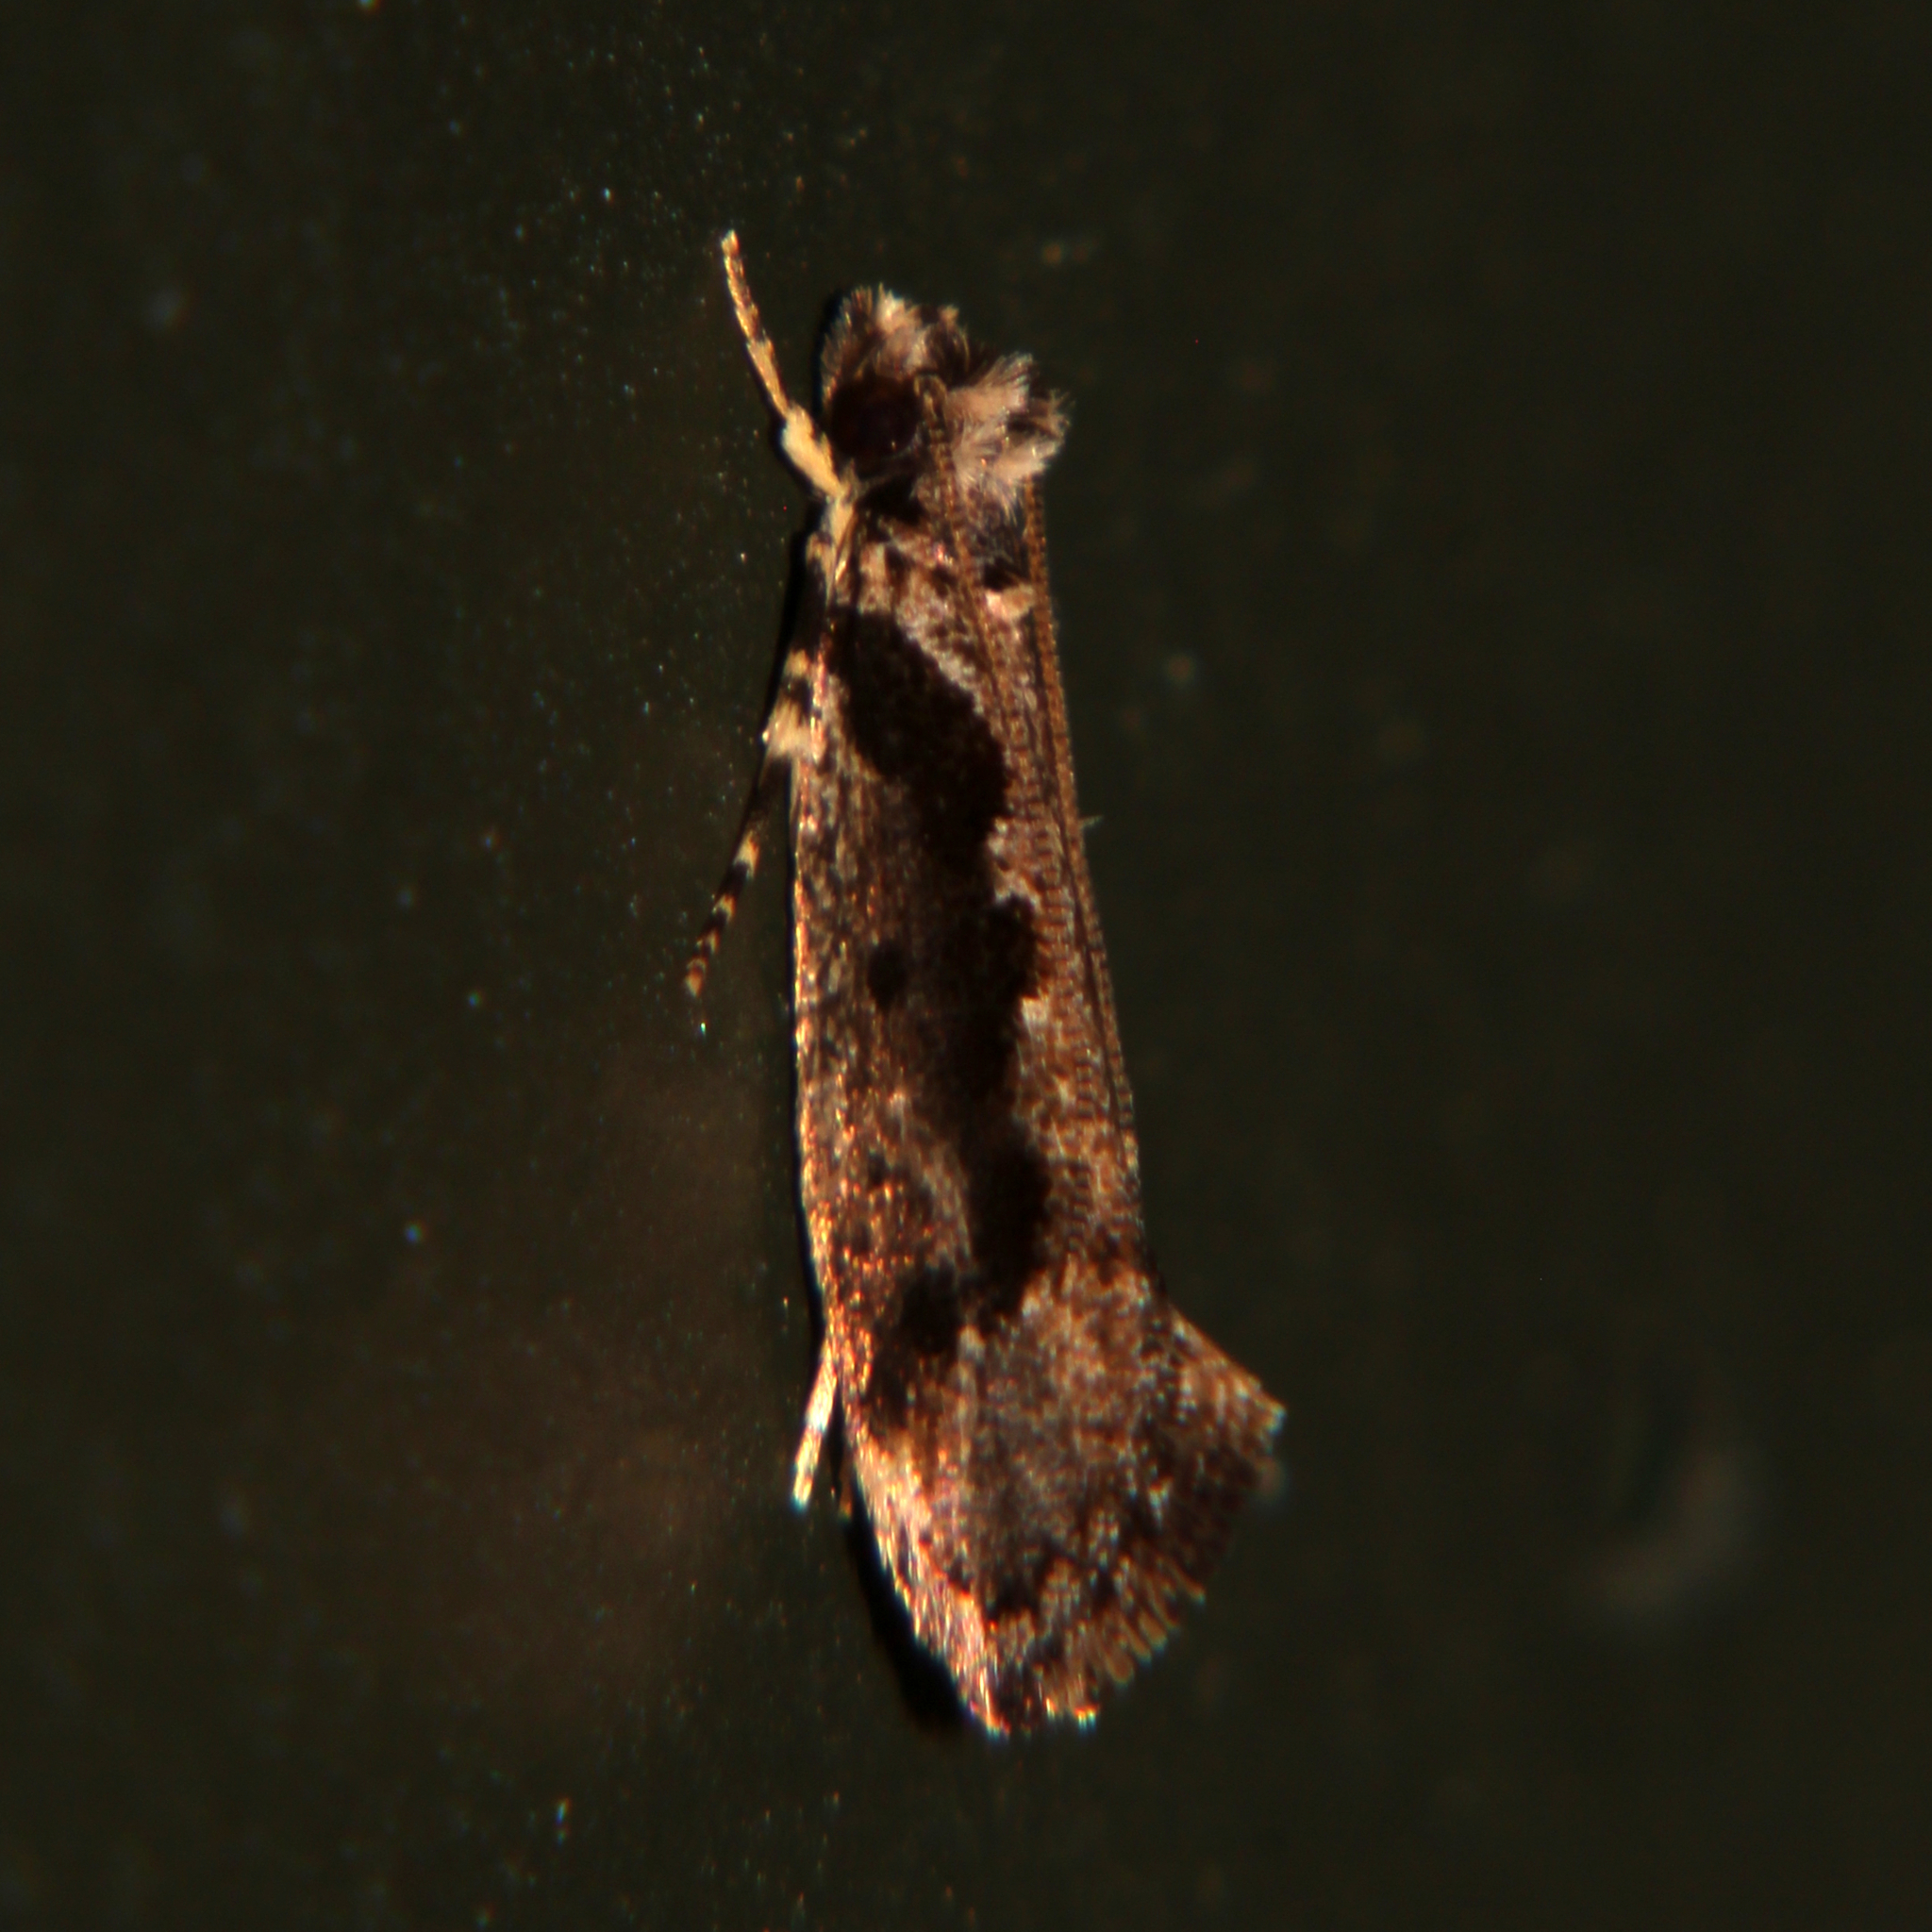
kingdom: Animalia
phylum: Arthropoda
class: Insecta
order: Lepidoptera
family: Tineidae
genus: Erechthias
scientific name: Erechthias capnitis
